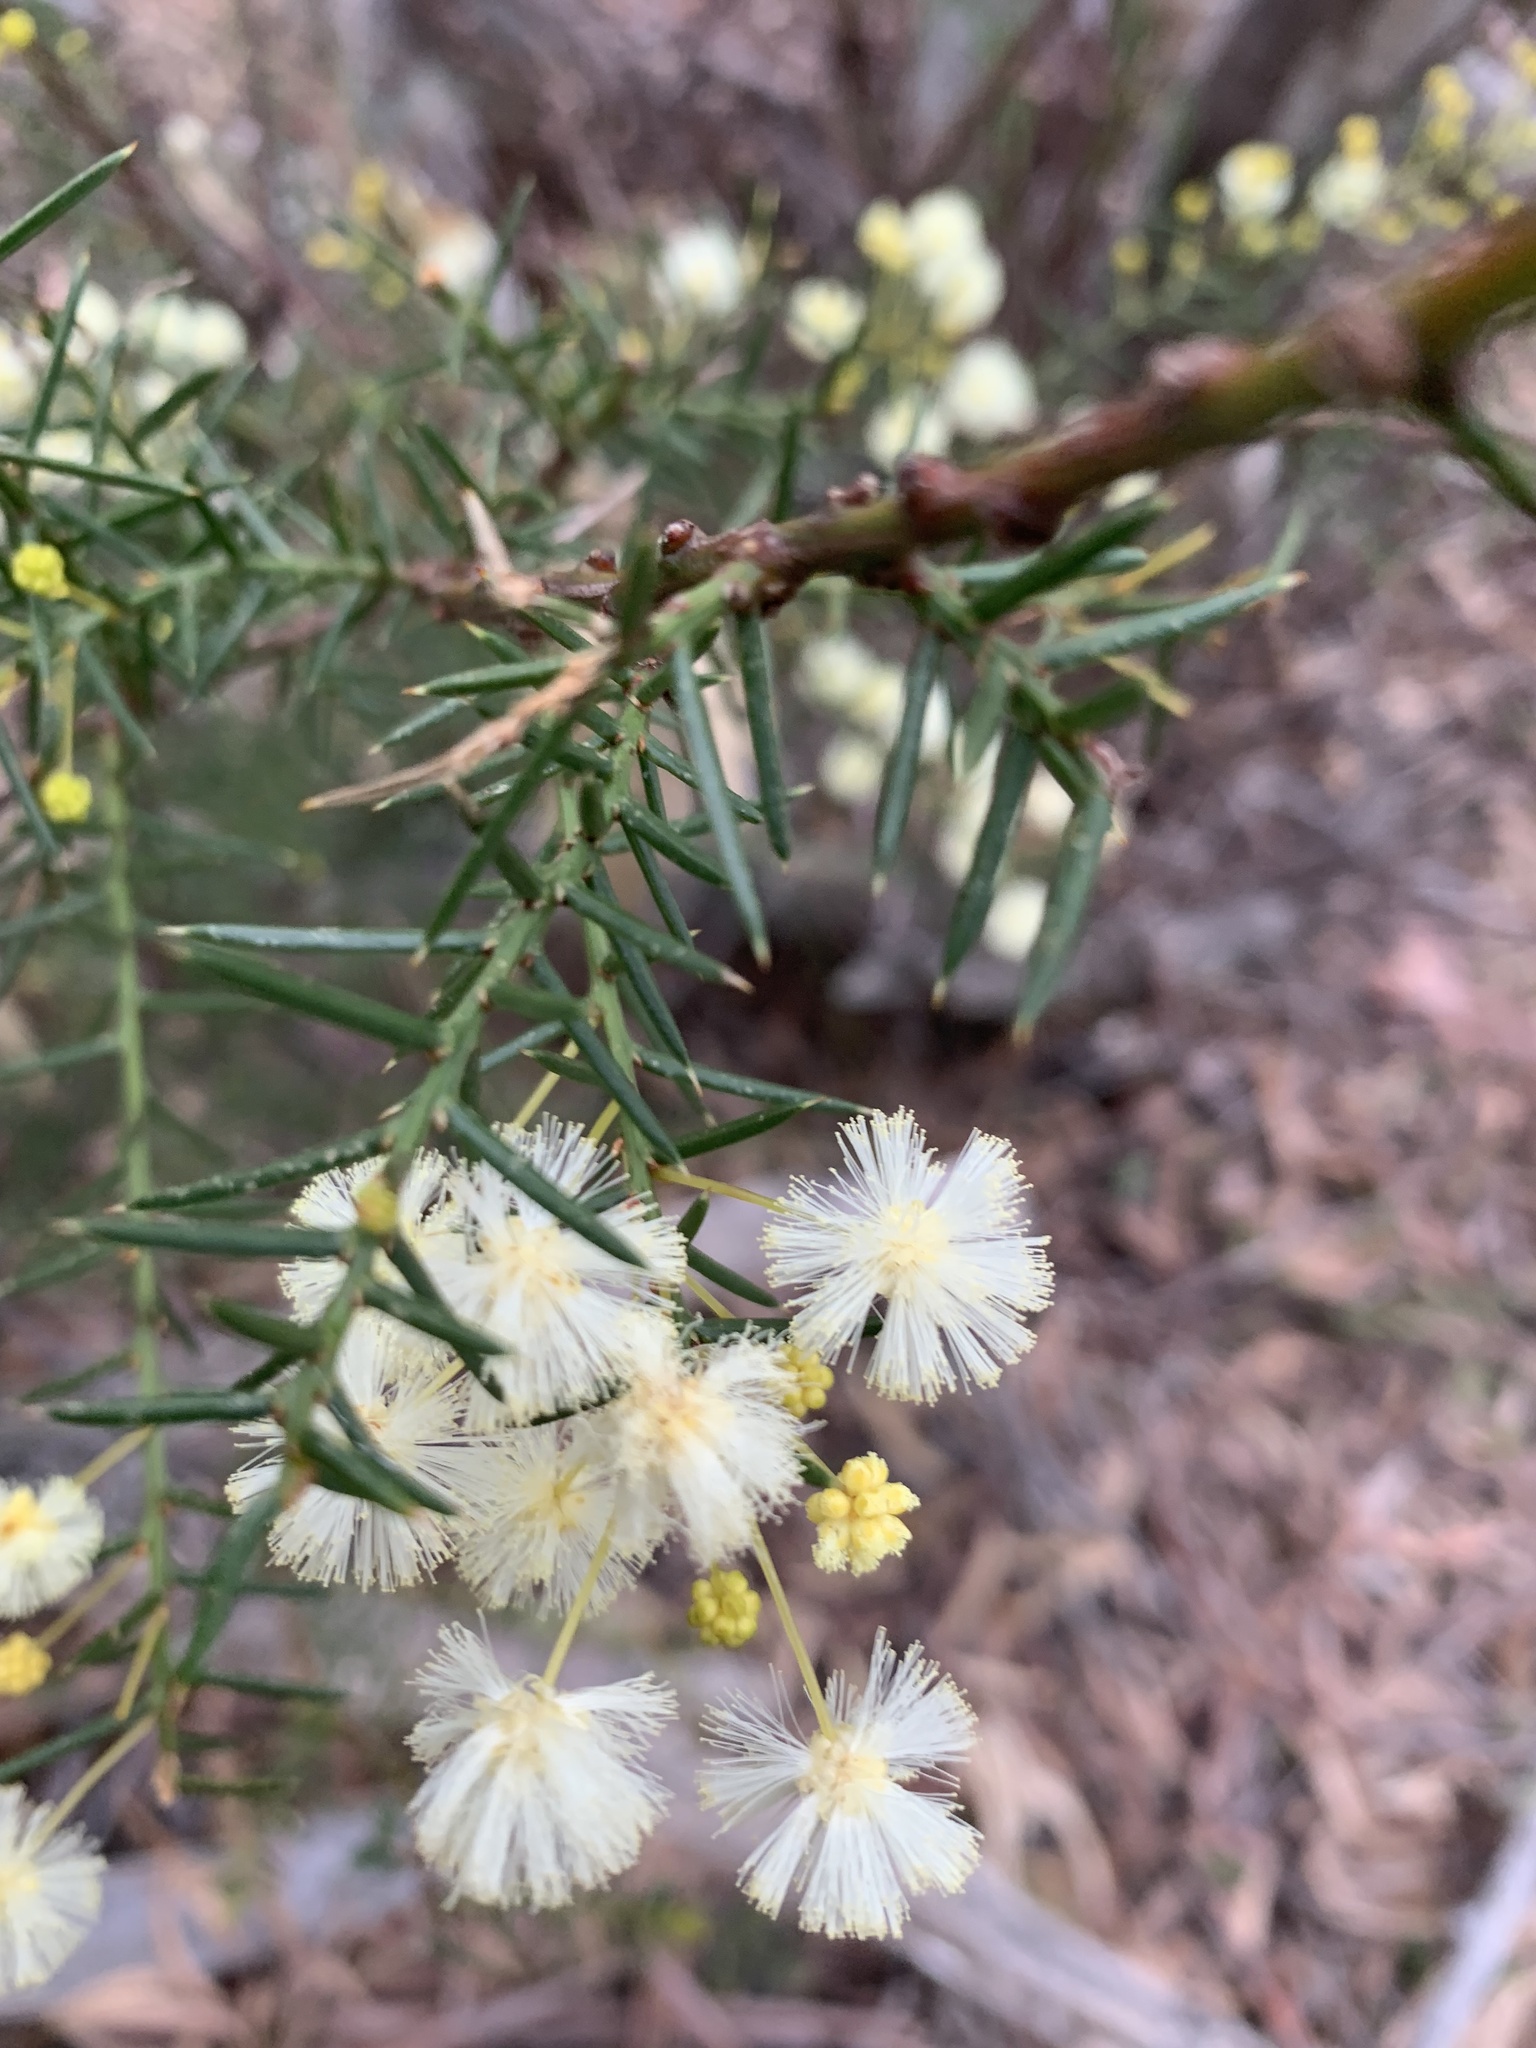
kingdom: Plantae
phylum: Tracheophyta
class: Magnoliopsida
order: Fabales
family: Fabaceae
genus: Acacia
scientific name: Acacia genistifolia
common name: Early wattle
